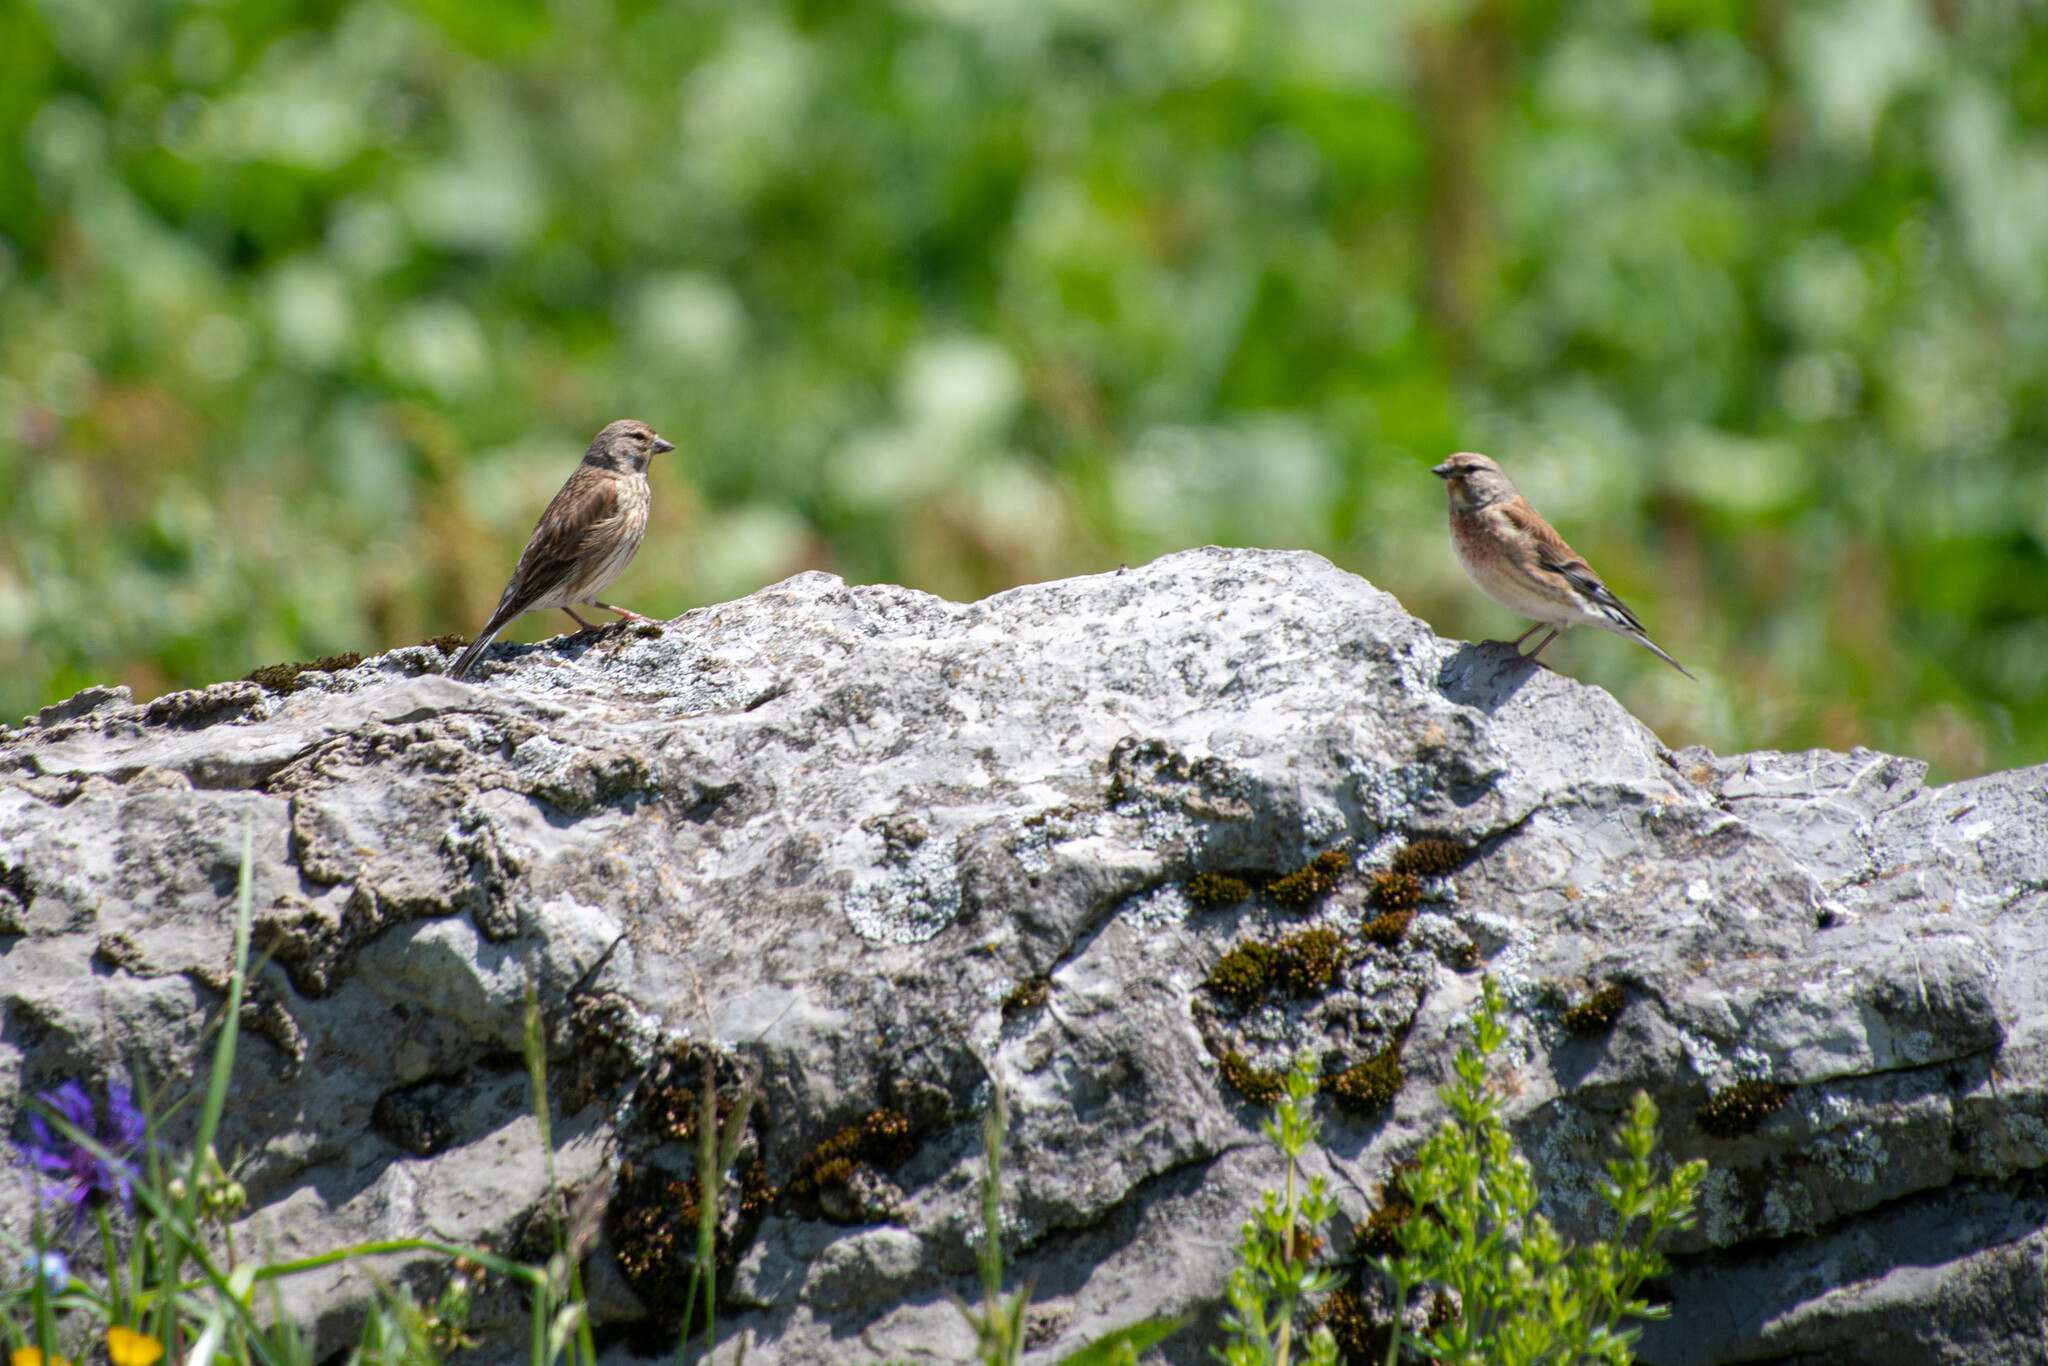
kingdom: Animalia
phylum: Chordata
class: Aves
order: Passeriformes
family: Fringillidae
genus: Linaria
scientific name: Linaria cannabina
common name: Common linnet
